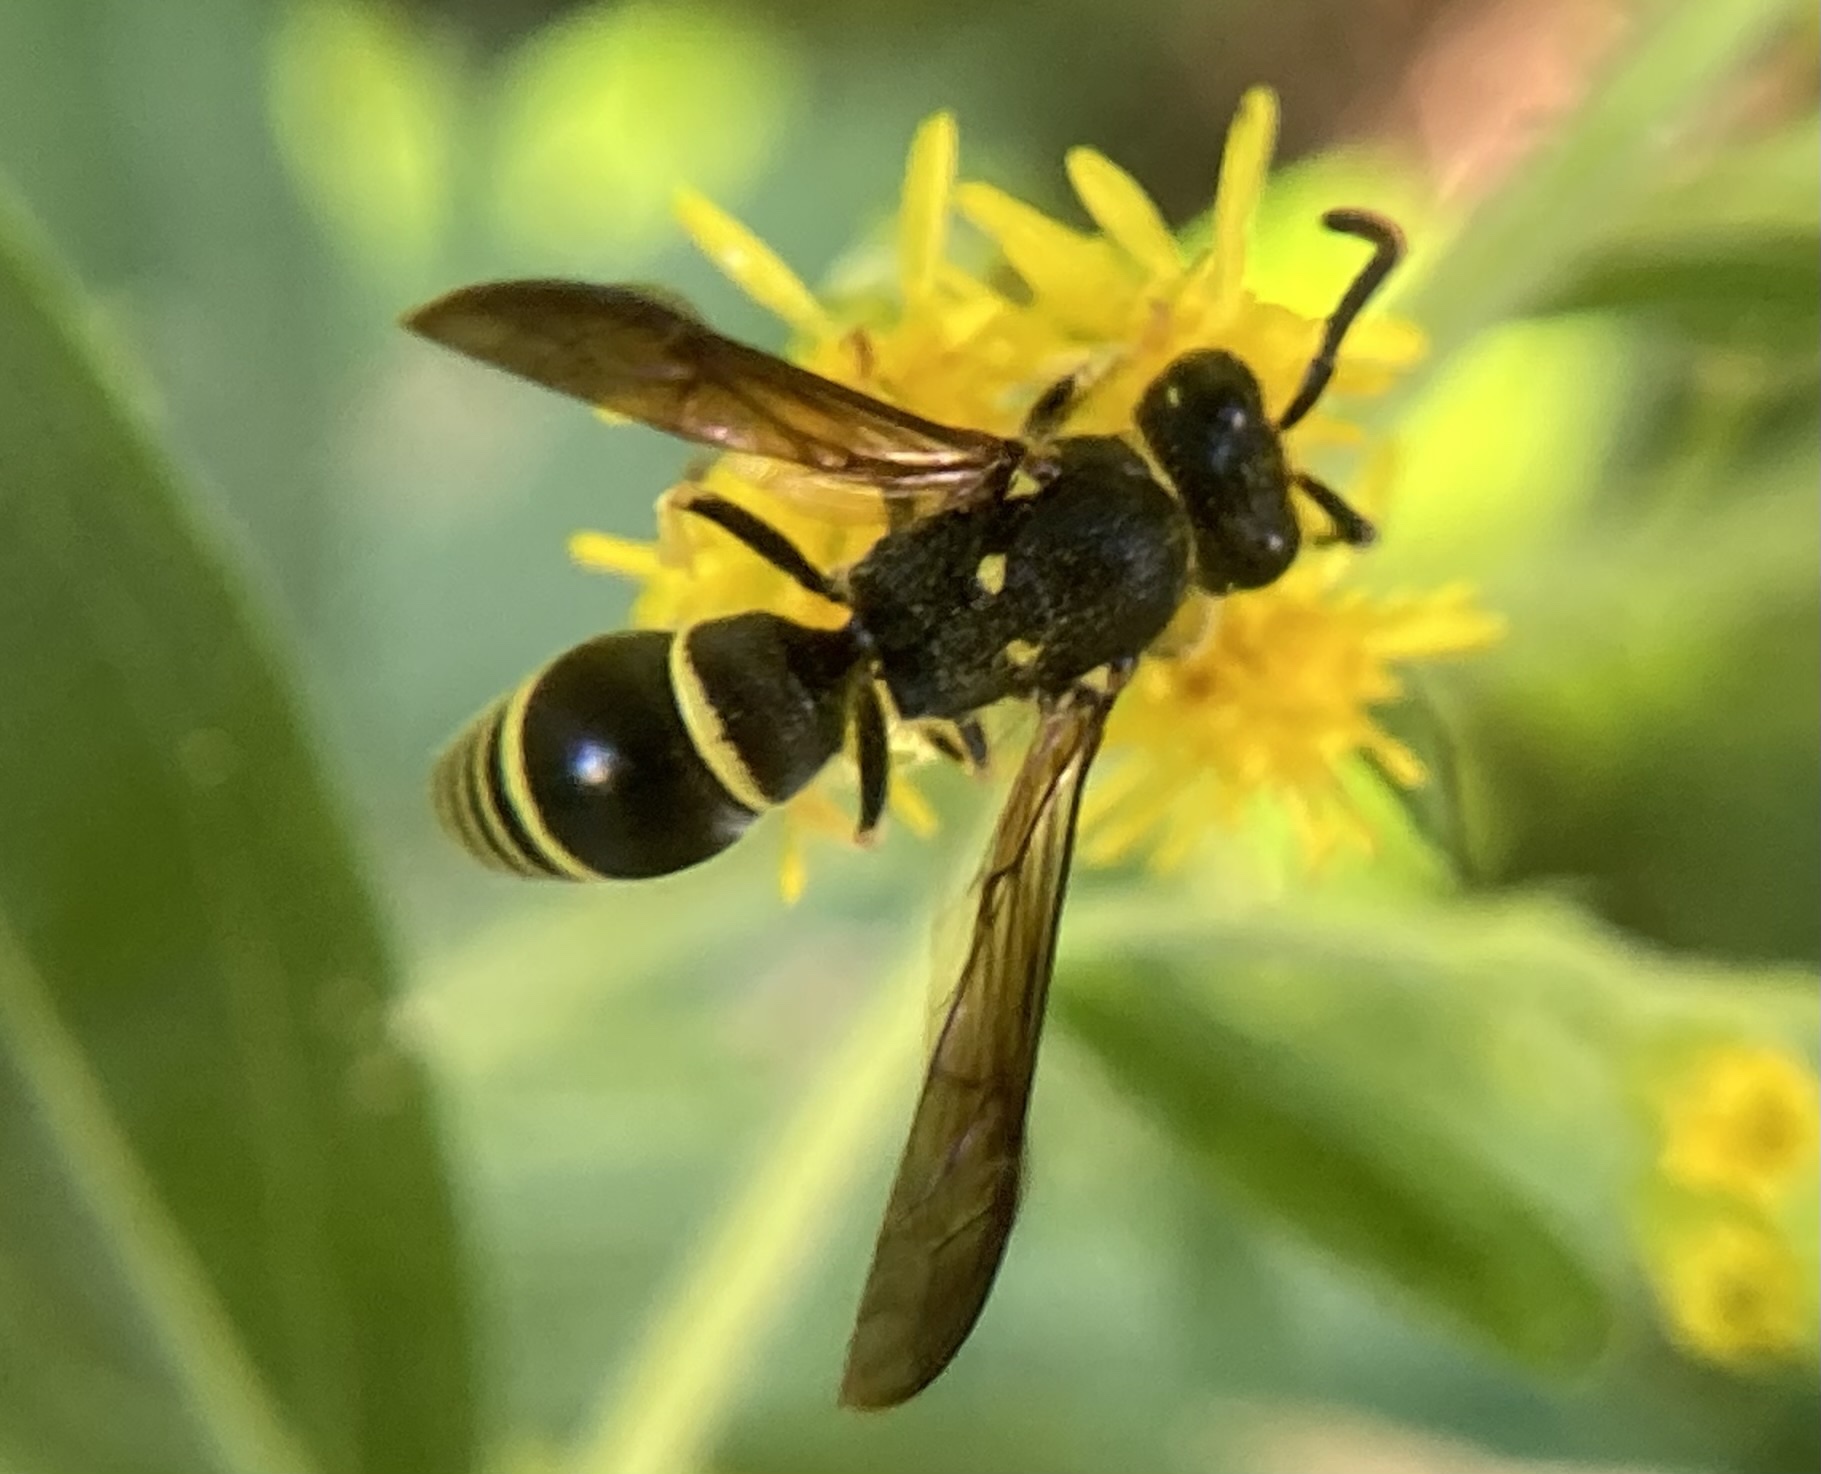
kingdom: Animalia
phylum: Arthropoda
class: Insecta
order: Hymenoptera
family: Vespidae
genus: Ancistrocerus
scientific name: Ancistrocerus
